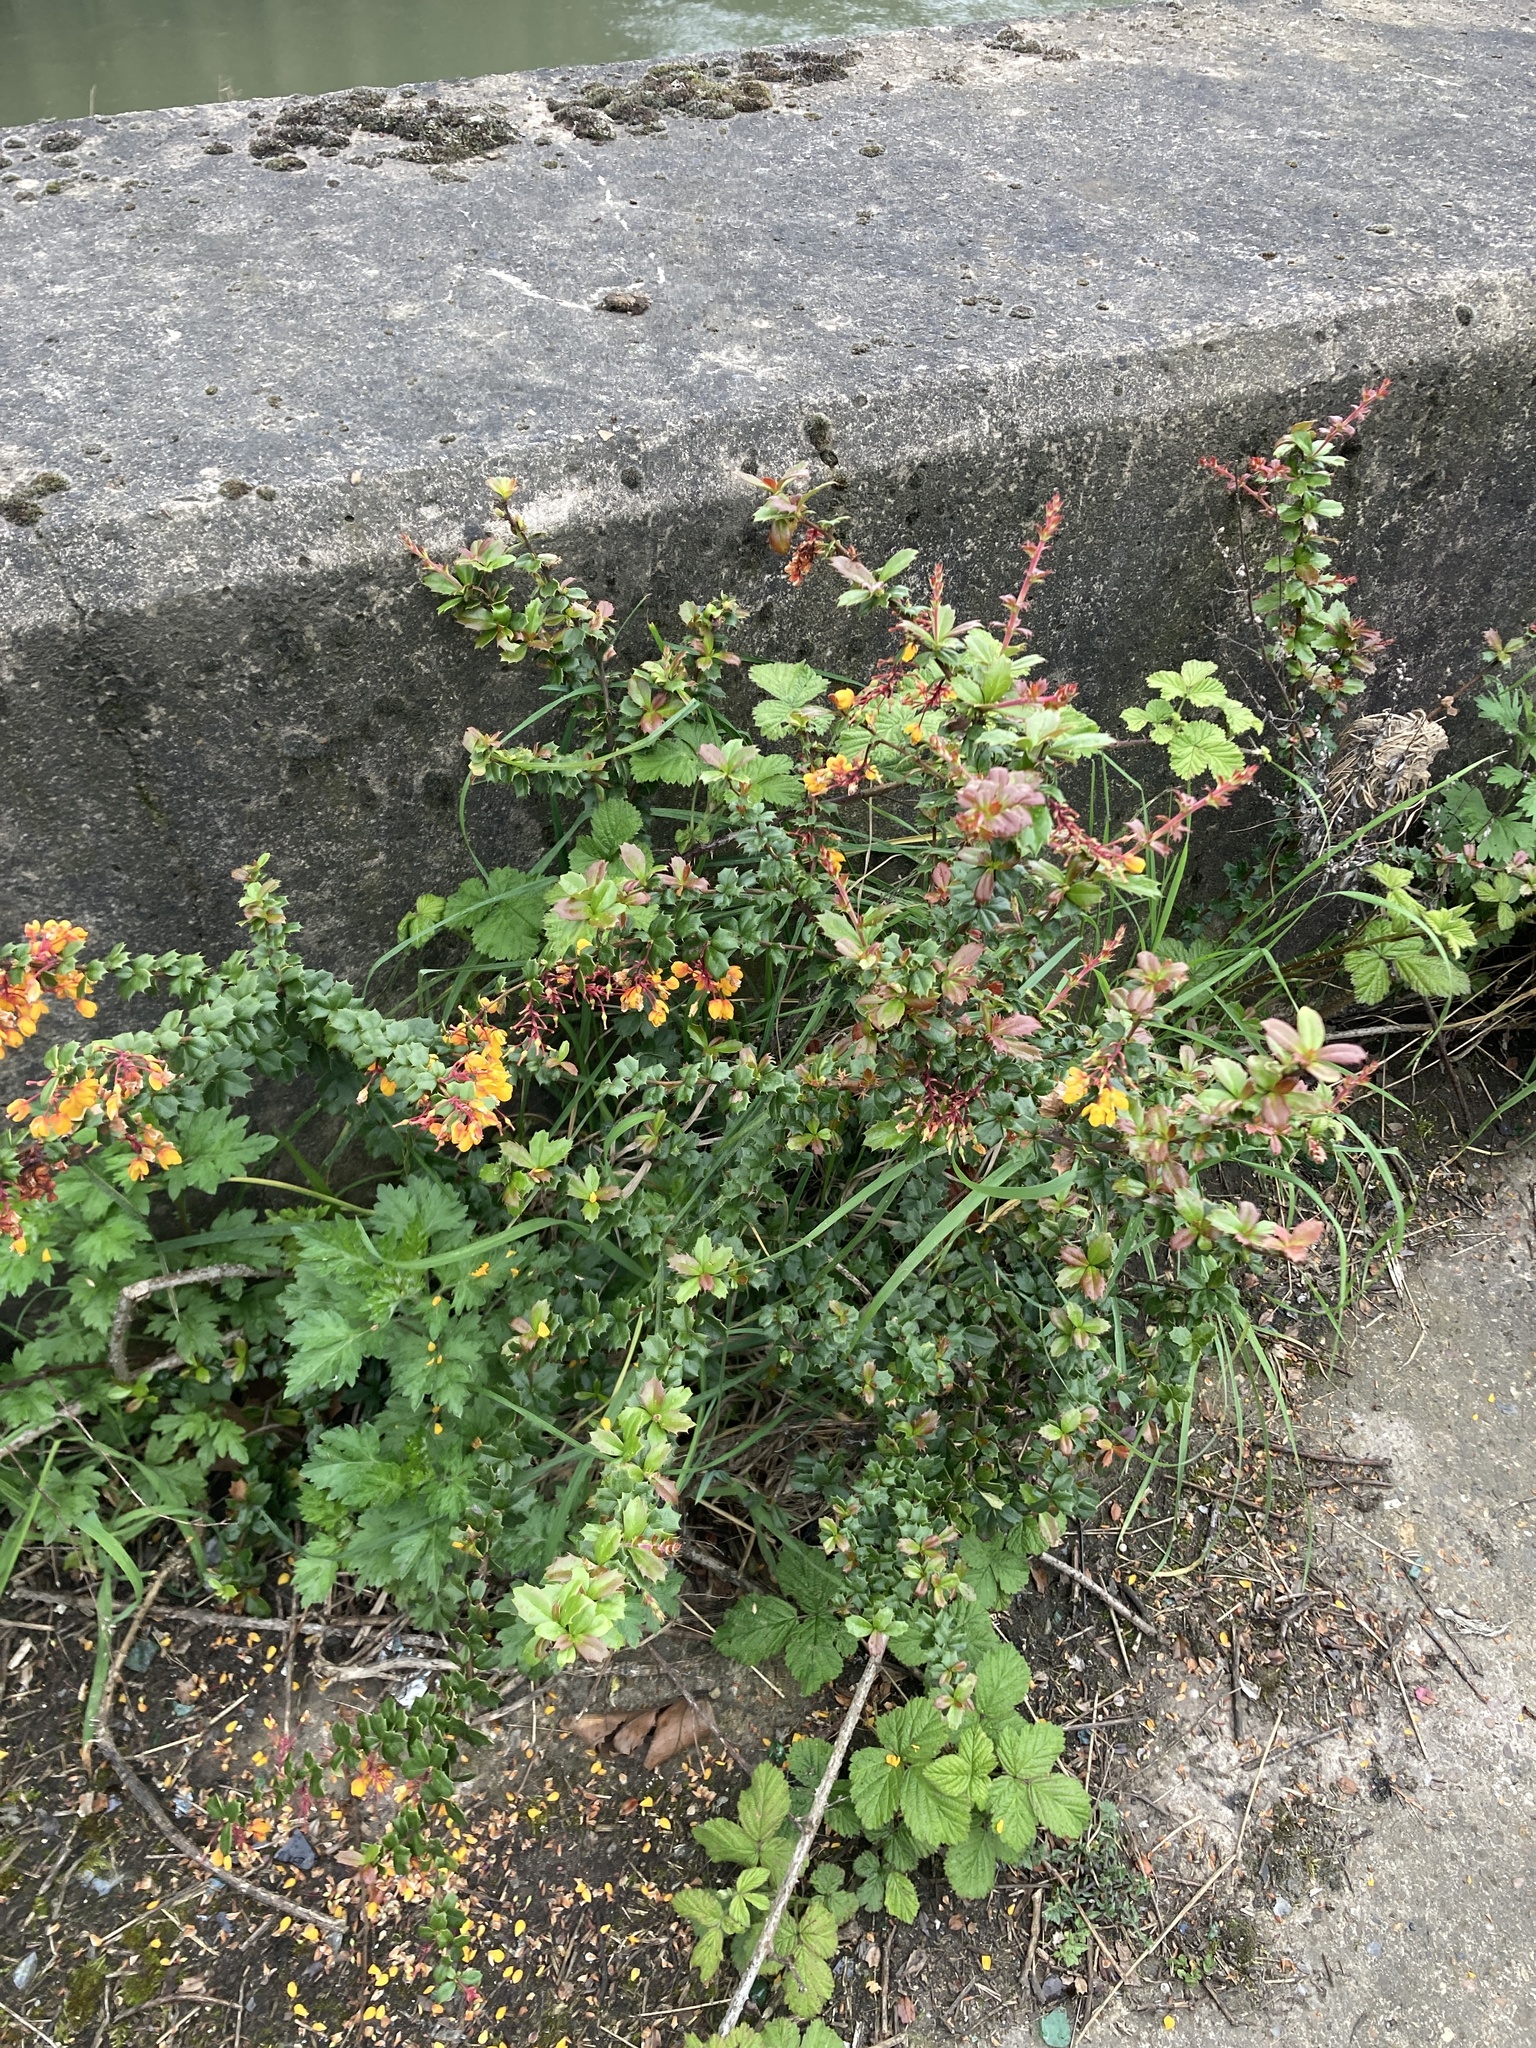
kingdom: Plantae
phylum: Tracheophyta
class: Magnoliopsida
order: Ranunculales
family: Berberidaceae
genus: Berberis
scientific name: Berberis darwinii
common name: Darwin's barberry
